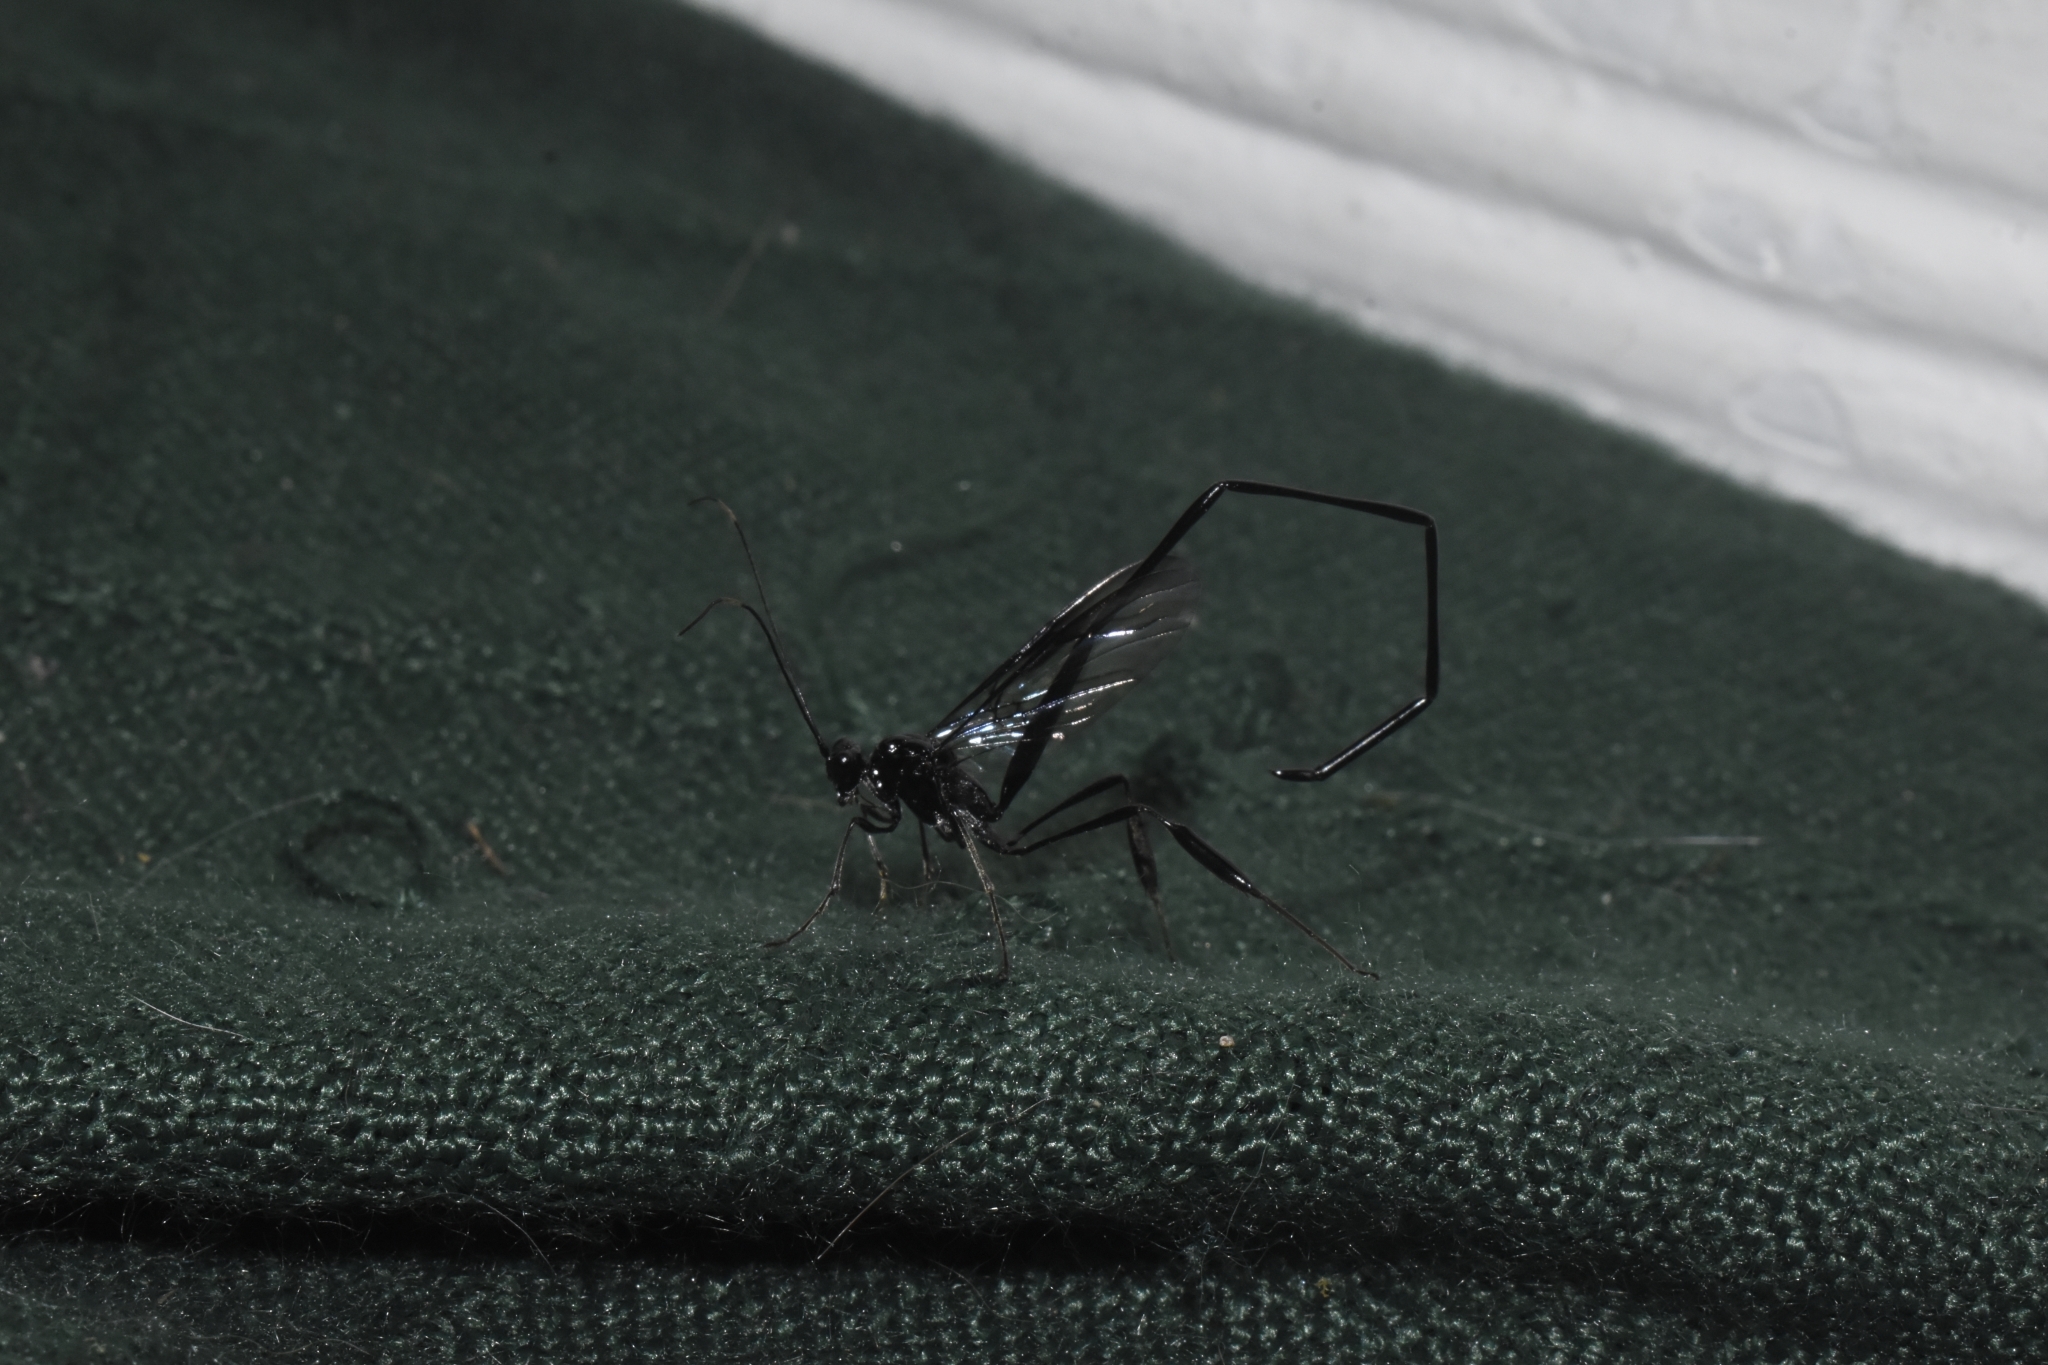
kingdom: Animalia
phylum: Arthropoda
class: Insecta
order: Hymenoptera
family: Pelecinidae
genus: Pelecinus
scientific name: Pelecinus polyturator
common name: American pelecinid wasp
